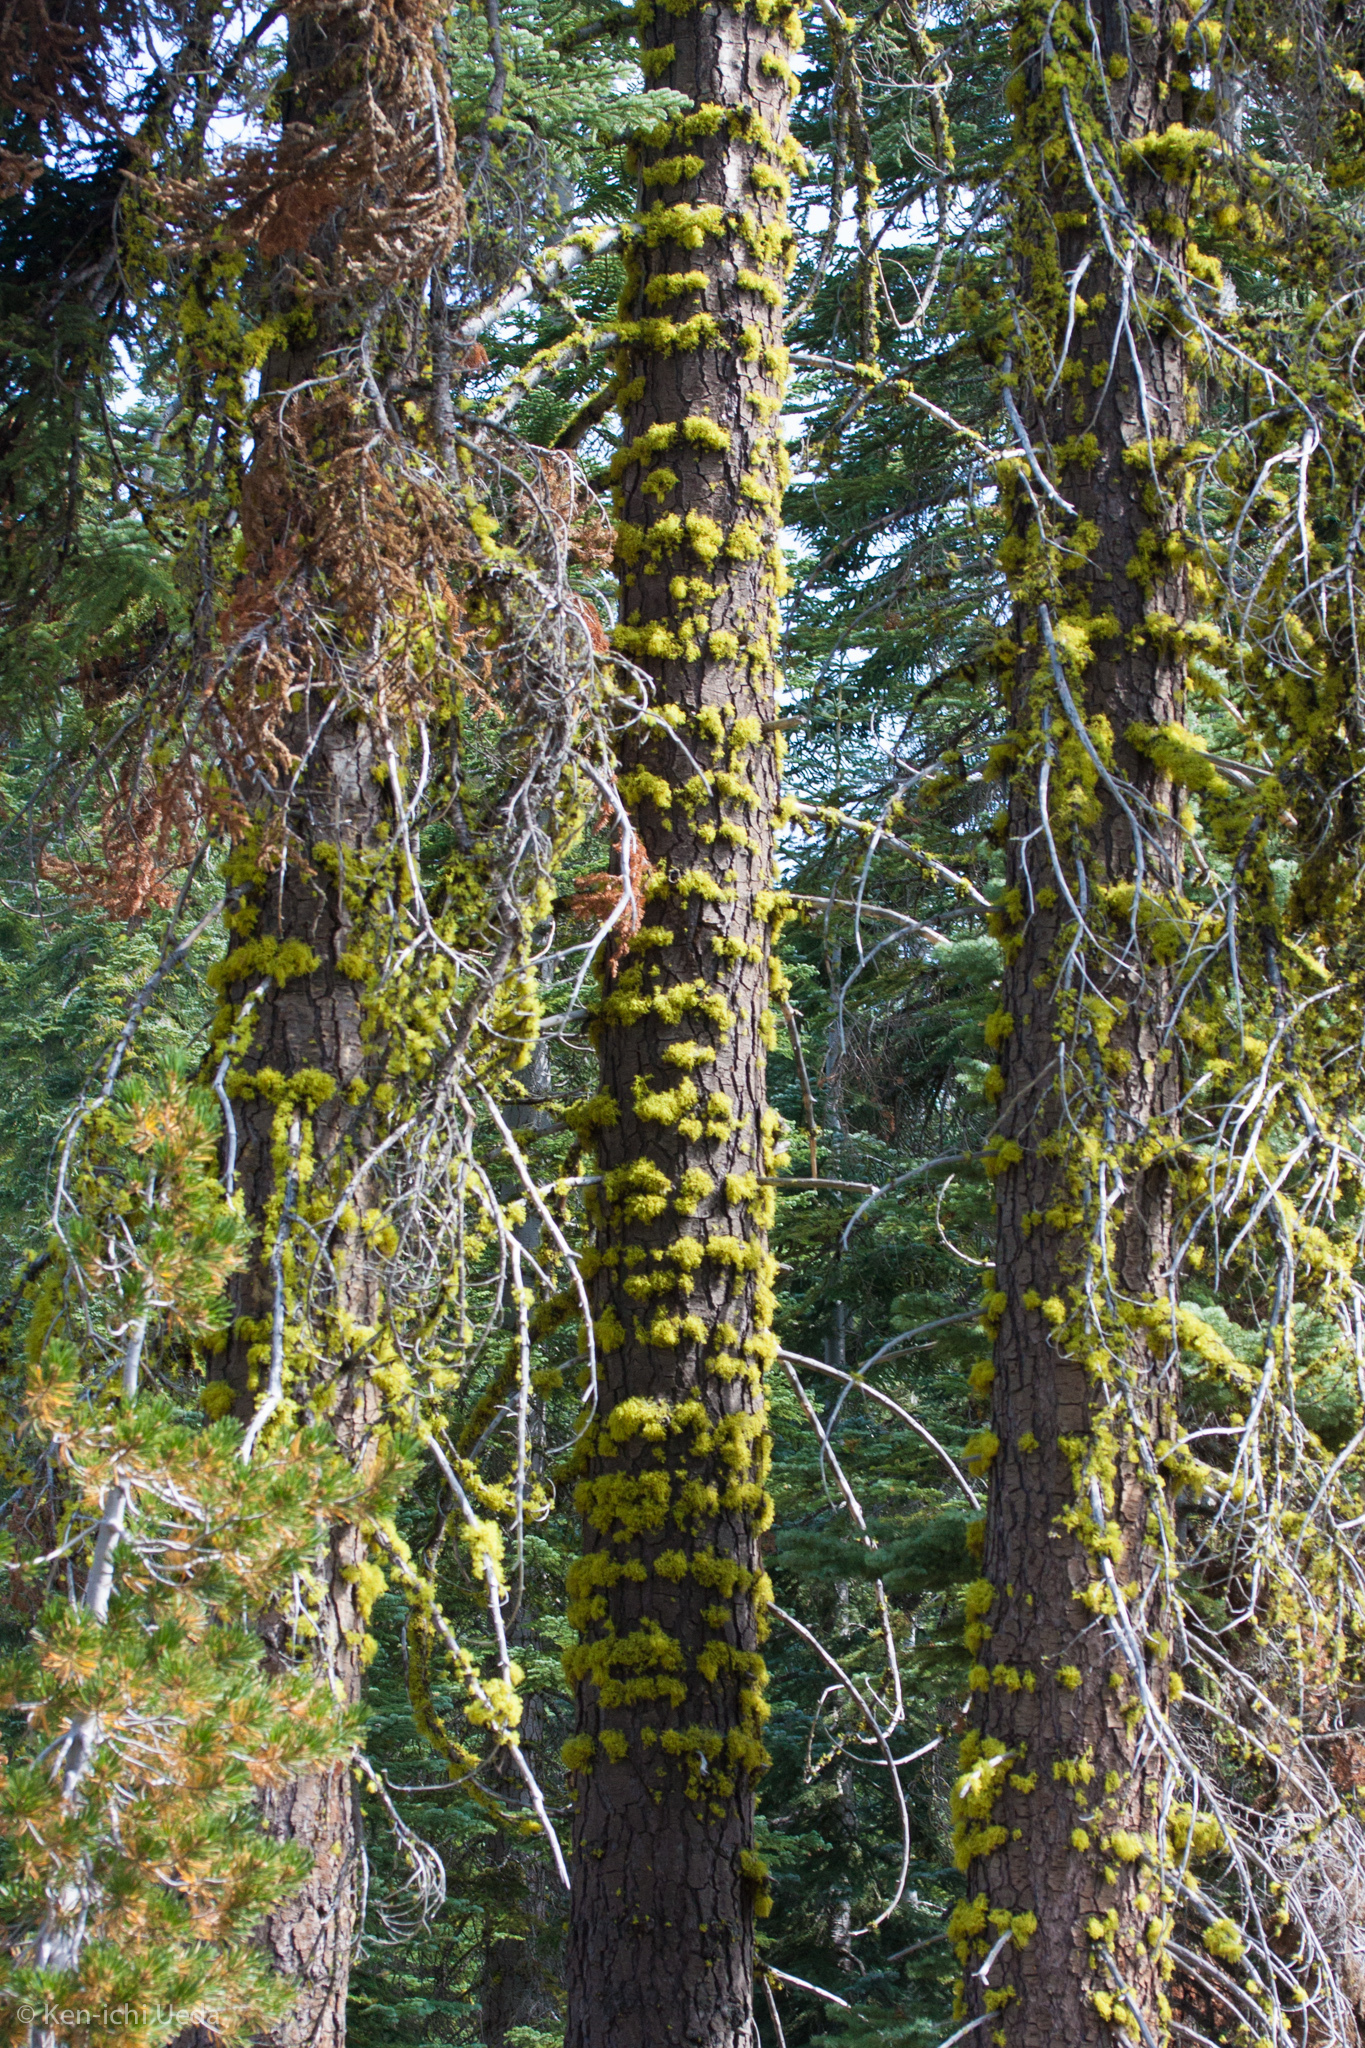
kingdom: Fungi
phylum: Ascomycota
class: Lecanoromycetes
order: Lecanorales
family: Parmeliaceae
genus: Letharia
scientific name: Letharia columbiana
